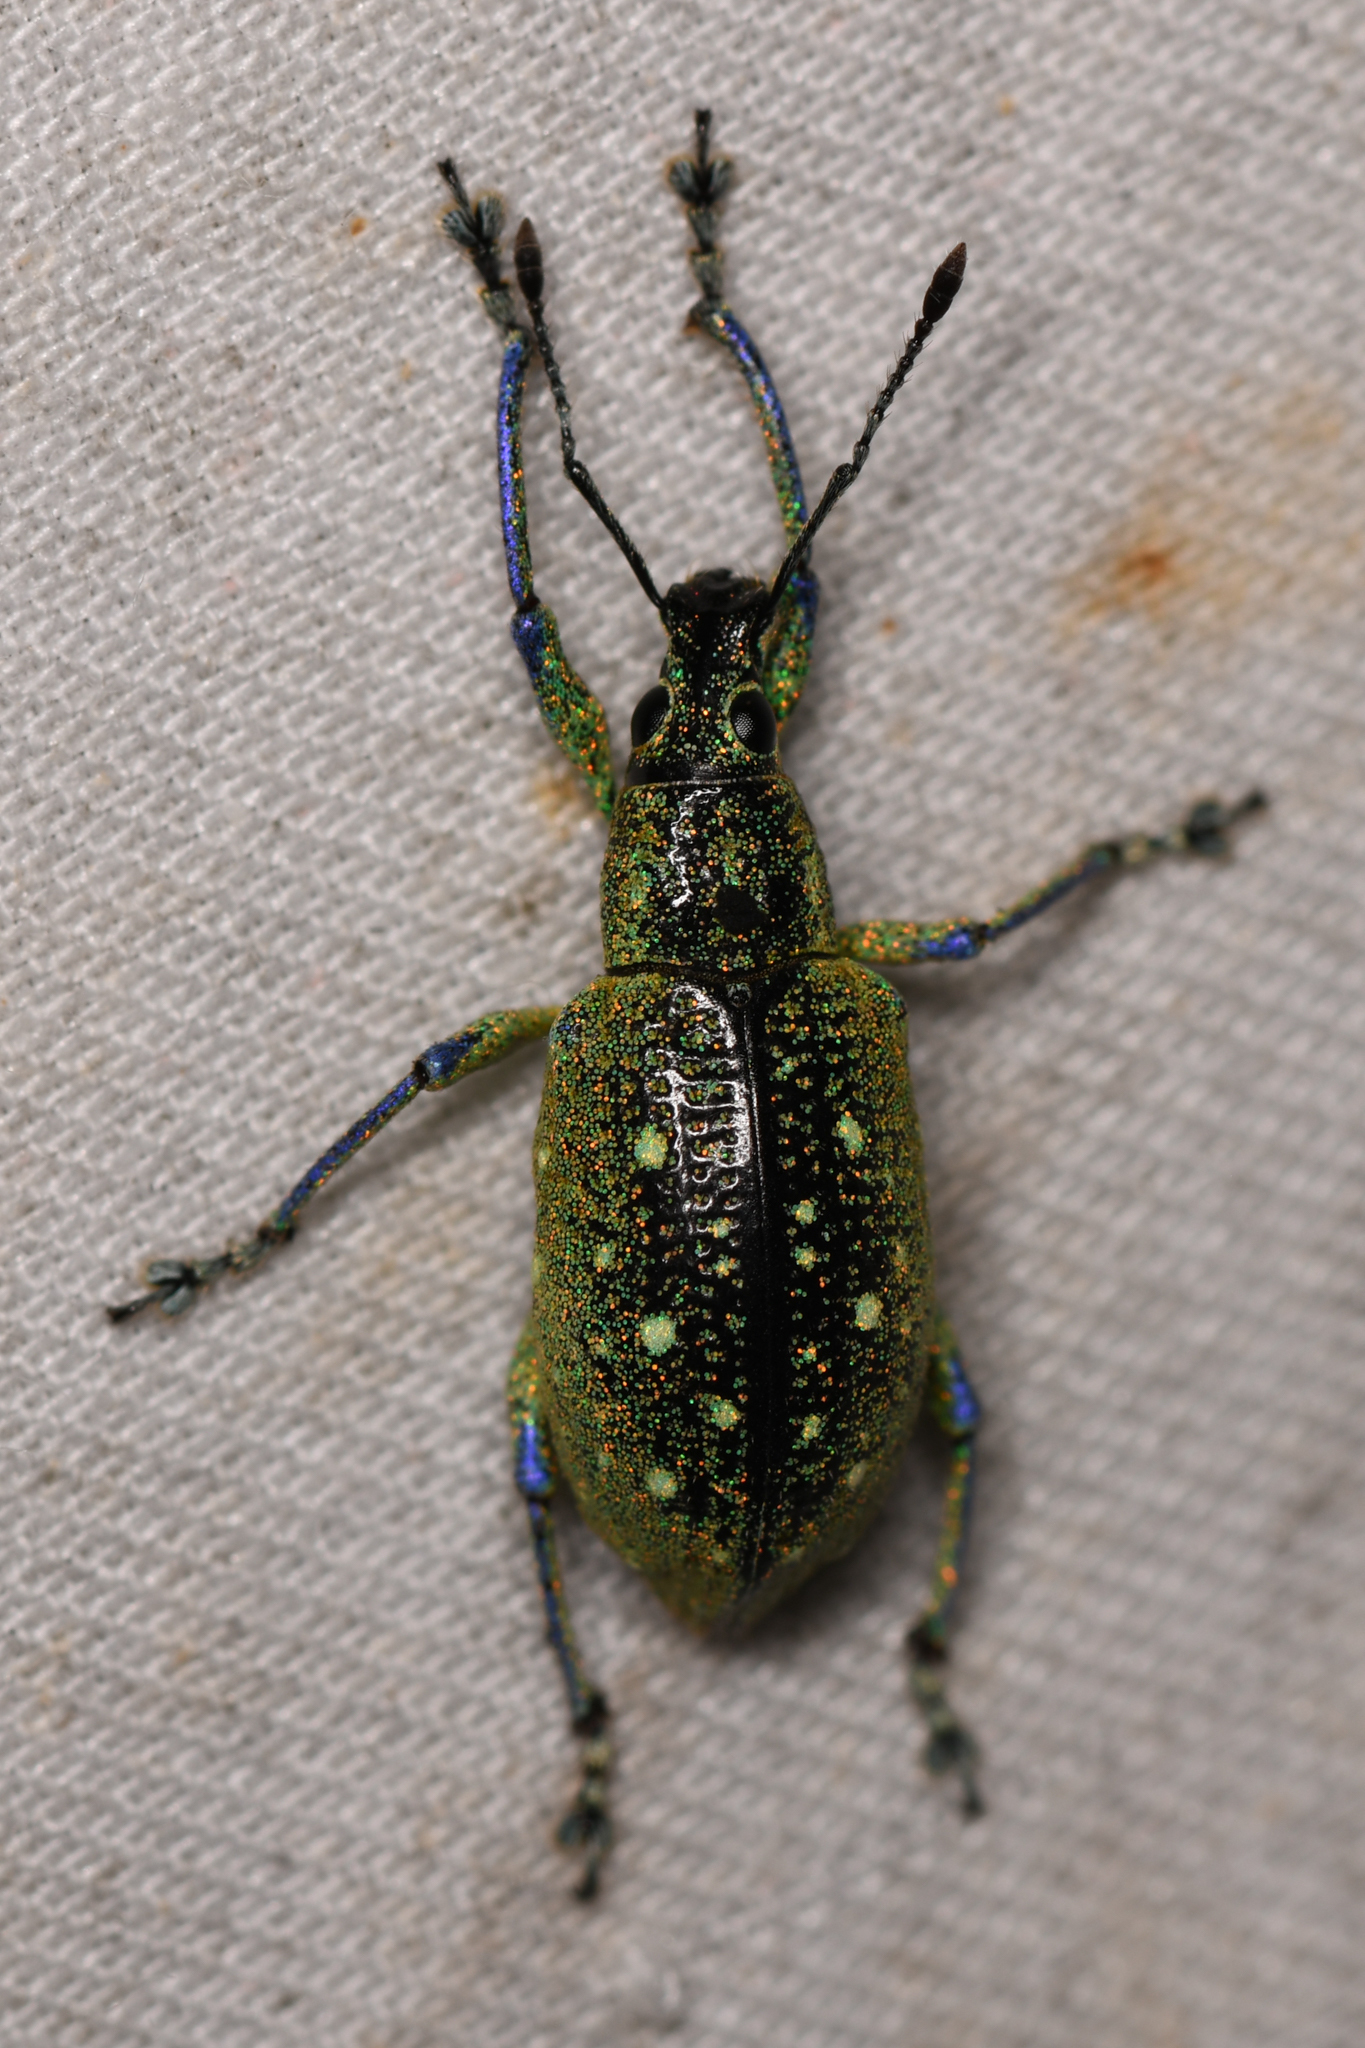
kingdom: Animalia
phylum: Arthropoda
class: Insecta
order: Coleoptera
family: Curculionidae
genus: Exophthalmus
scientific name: Exophthalmus jekelianus
